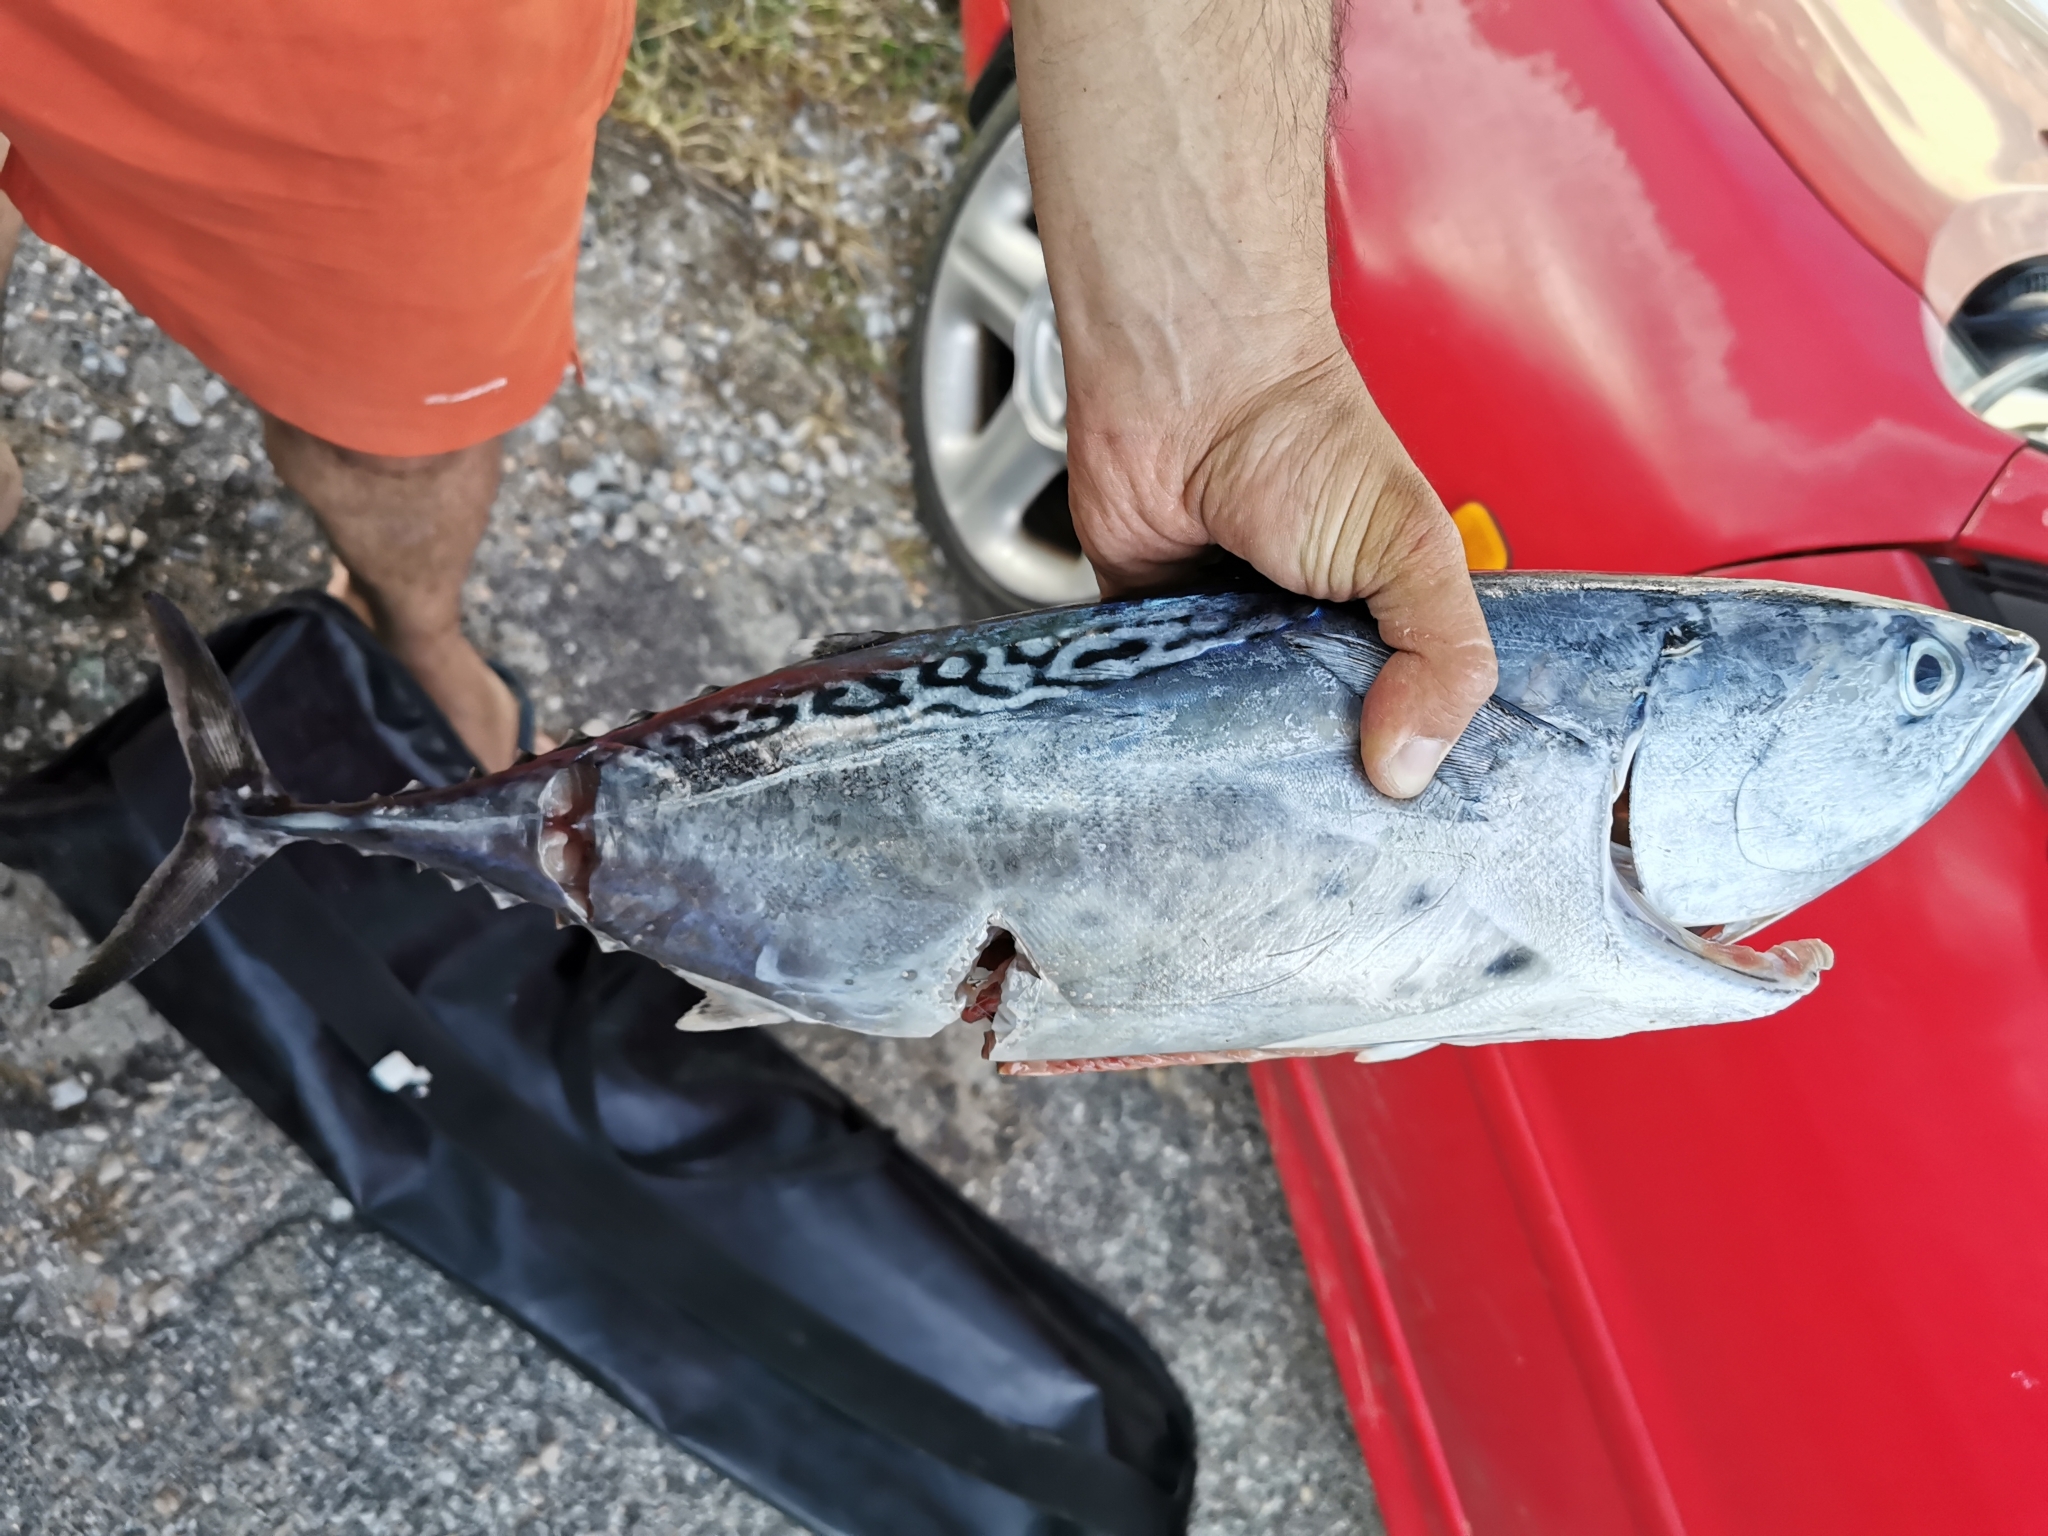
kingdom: Animalia
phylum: Chordata
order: Perciformes
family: Scombridae
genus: Euthynnus
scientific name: Euthynnus alletteratus
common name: Little tunny
